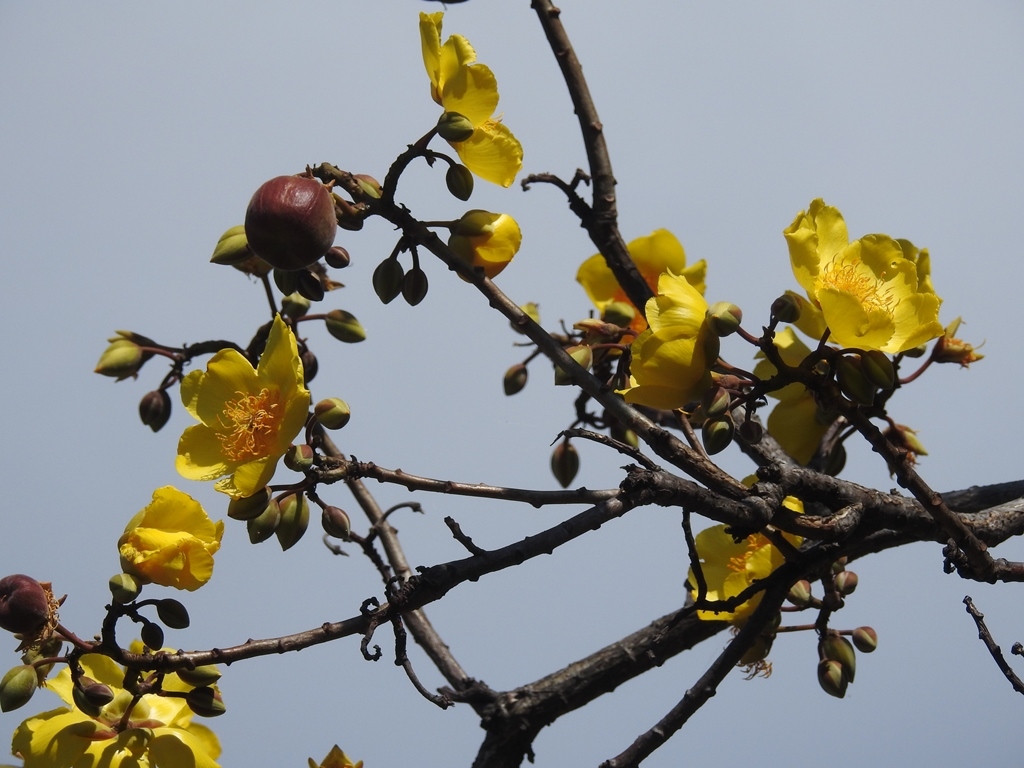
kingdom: Plantae
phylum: Tracheophyta
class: Magnoliopsida
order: Malvales
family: Cochlospermaceae
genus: Cochlospermum
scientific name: Cochlospermum vitifolium
